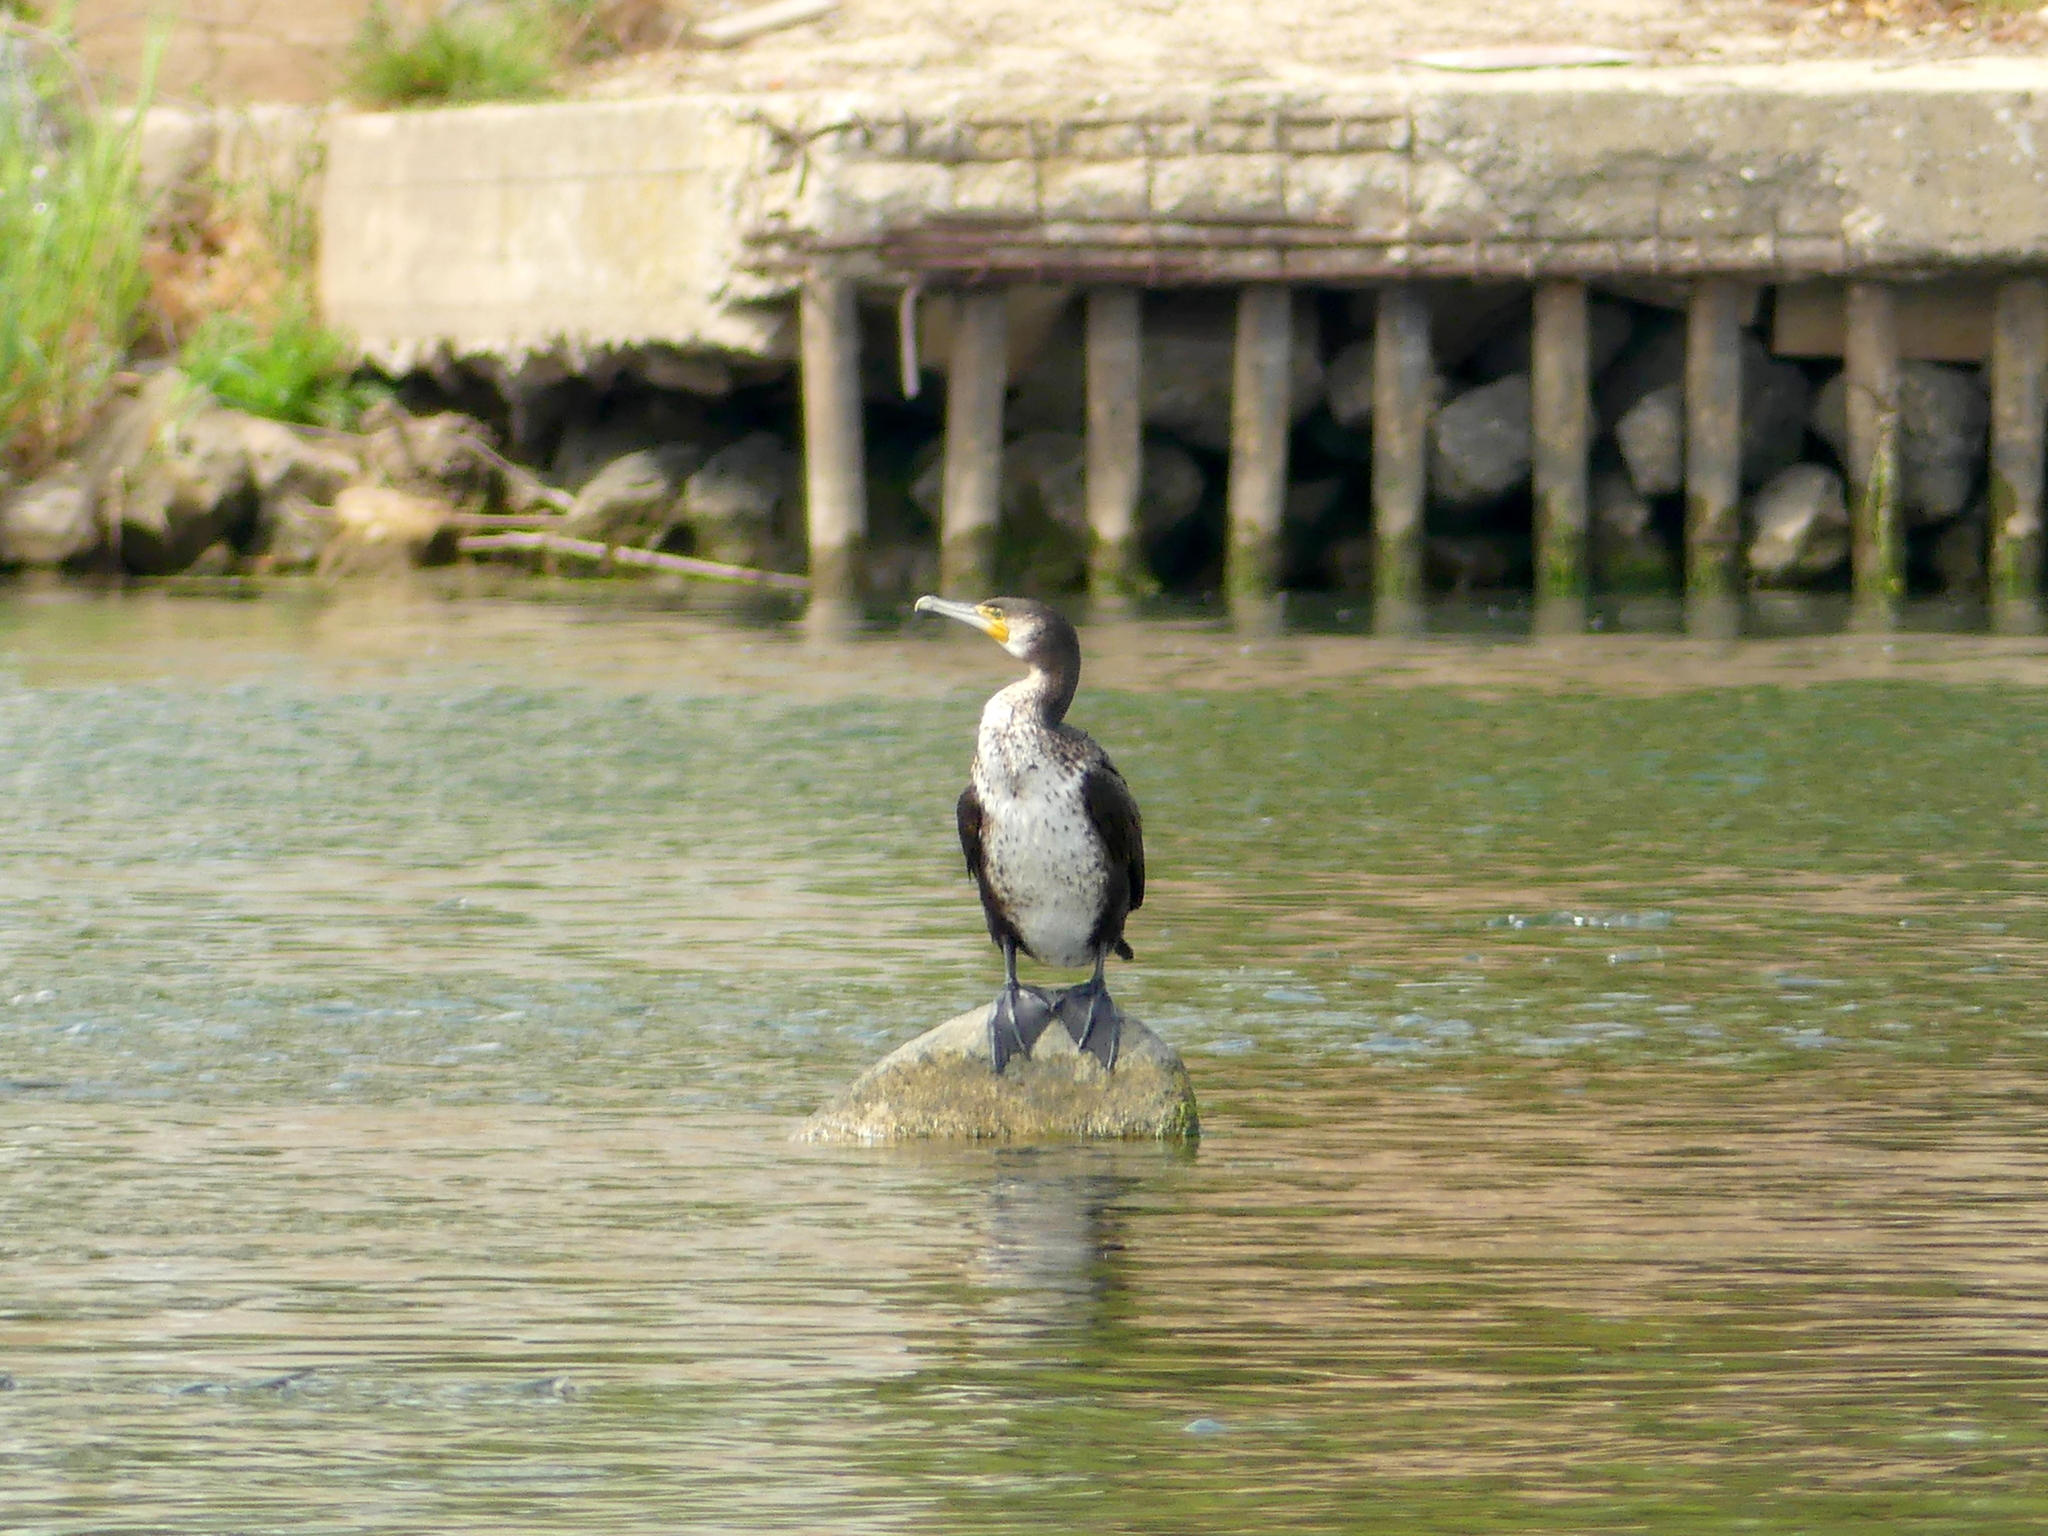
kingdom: Animalia
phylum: Chordata
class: Aves
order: Suliformes
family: Phalacrocoracidae
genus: Phalacrocorax
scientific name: Phalacrocorax carbo
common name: Great cormorant
